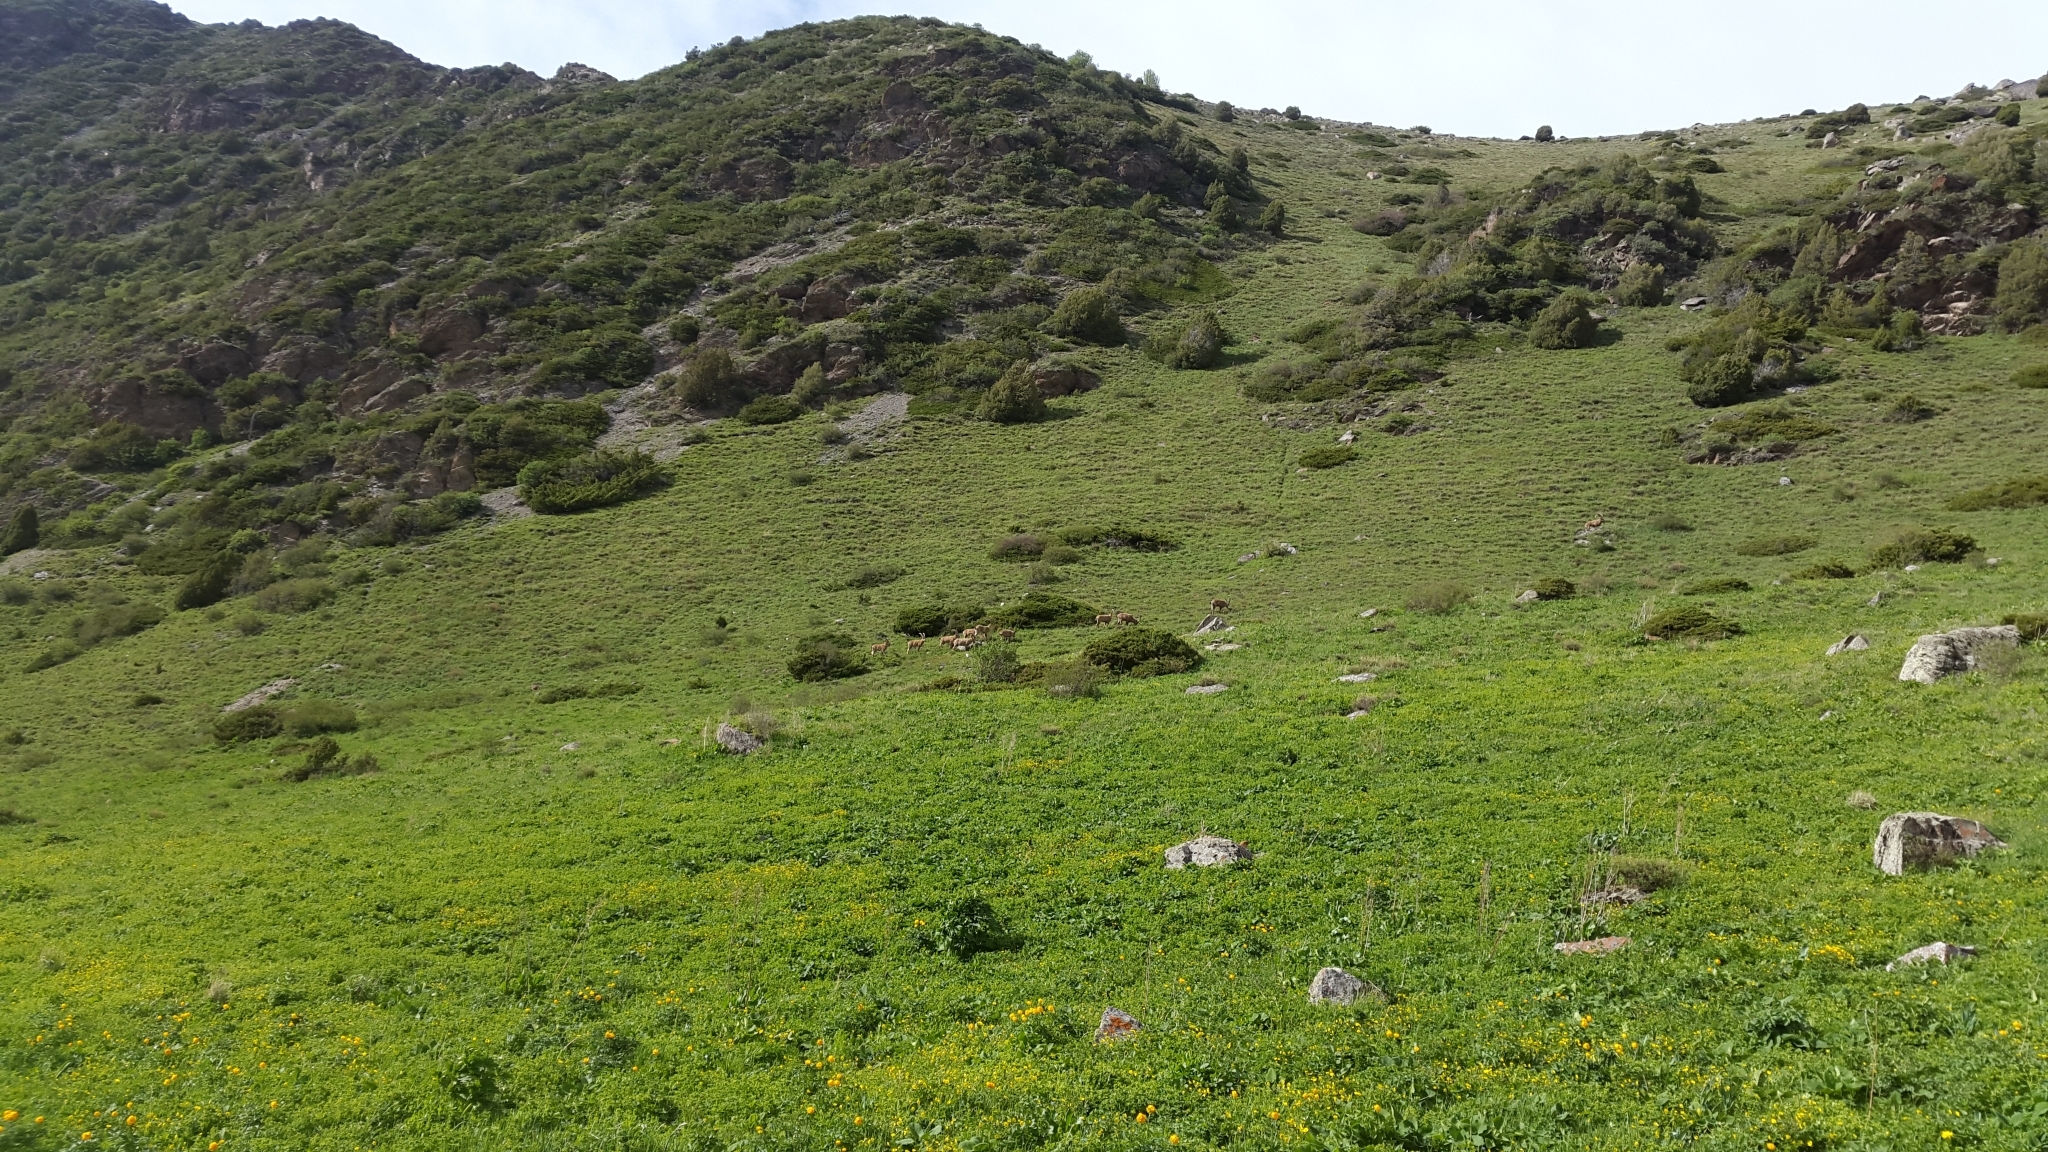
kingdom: Animalia
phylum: Chordata
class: Mammalia
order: Artiodactyla
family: Bovidae
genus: Capra
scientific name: Capra sibirica
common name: Siberian ibex
